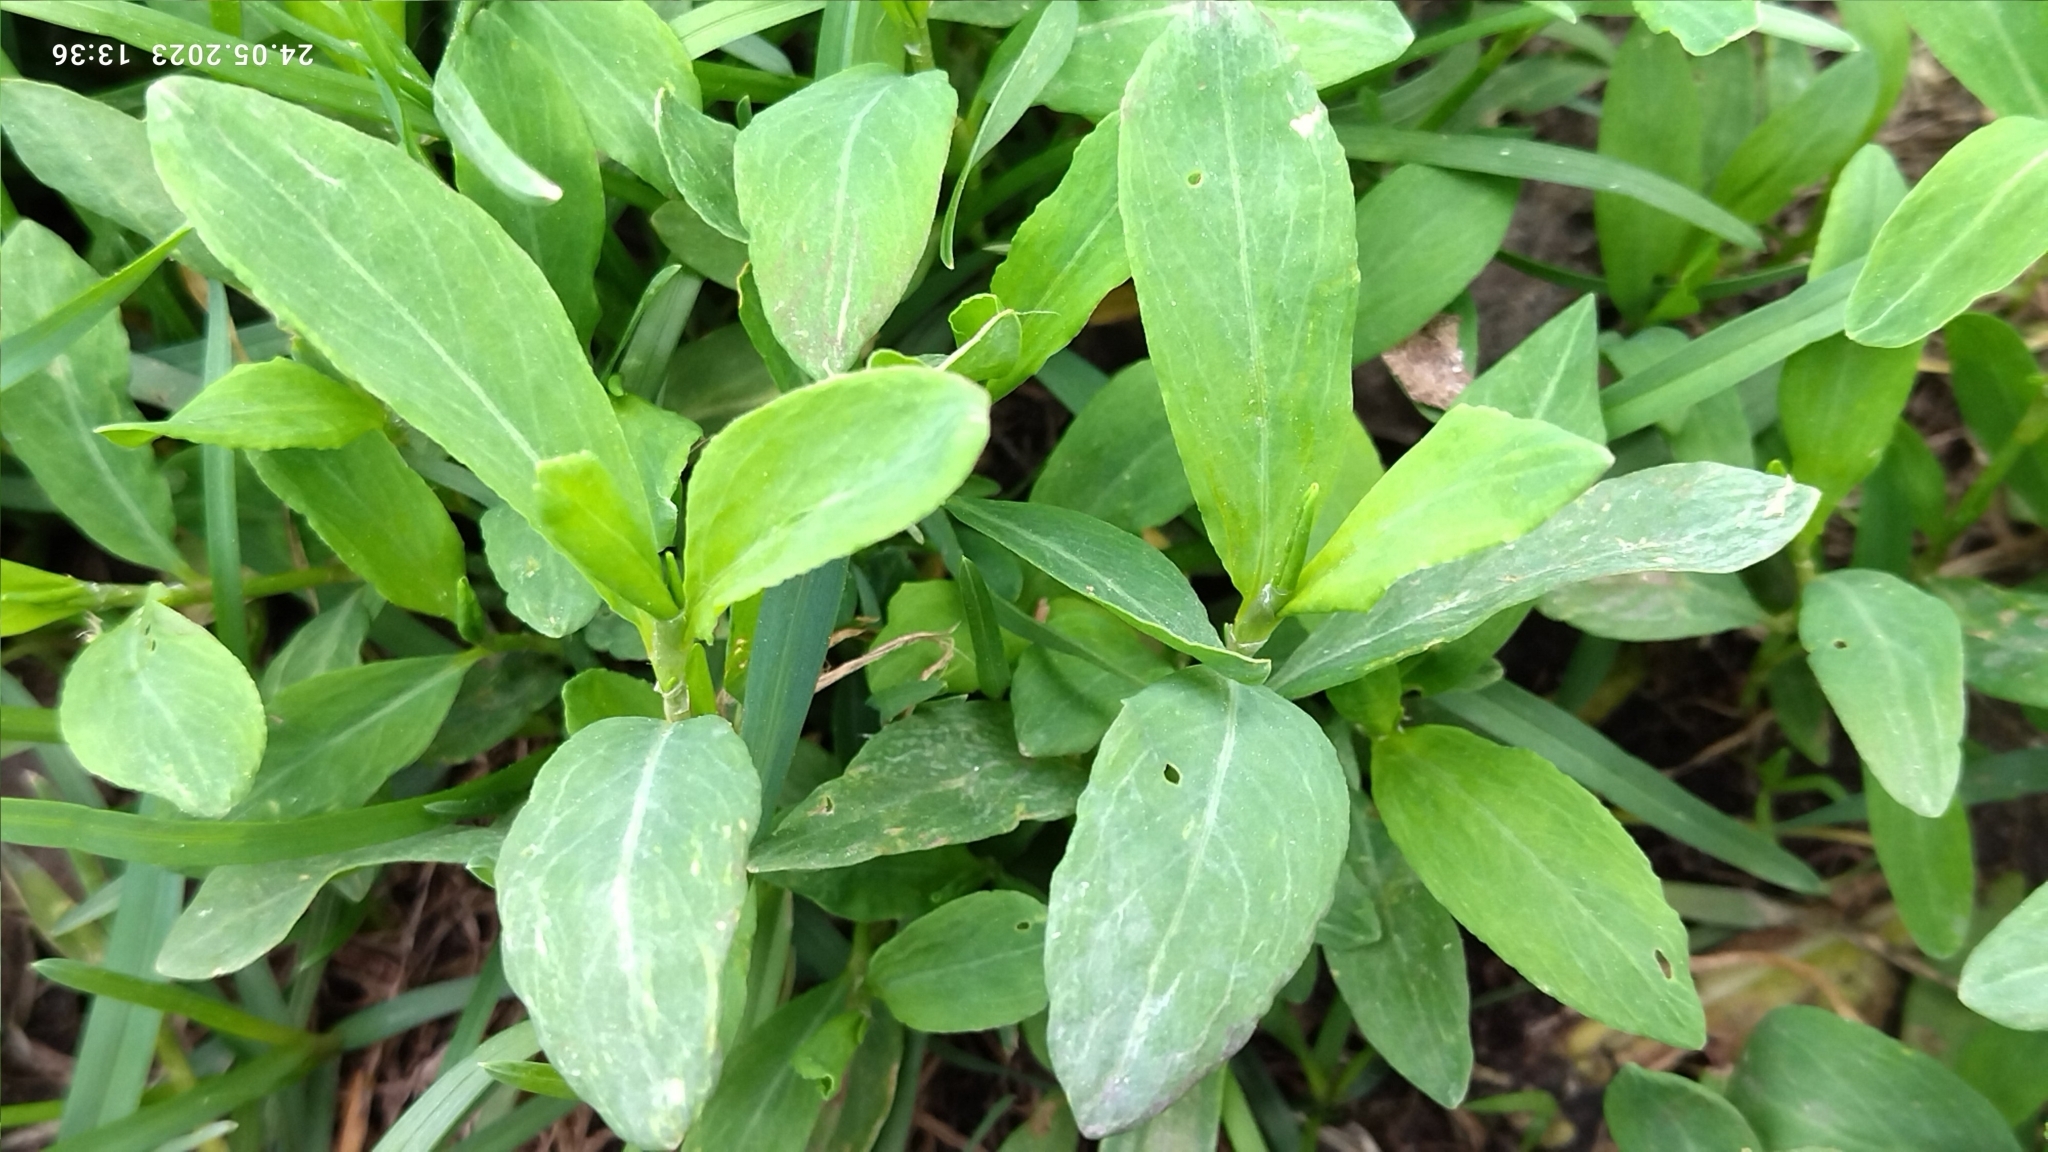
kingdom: Plantae
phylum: Tracheophyta
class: Magnoliopsida
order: Caryophyllales
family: Polygonaceae
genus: Polygonum
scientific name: Polygonum
